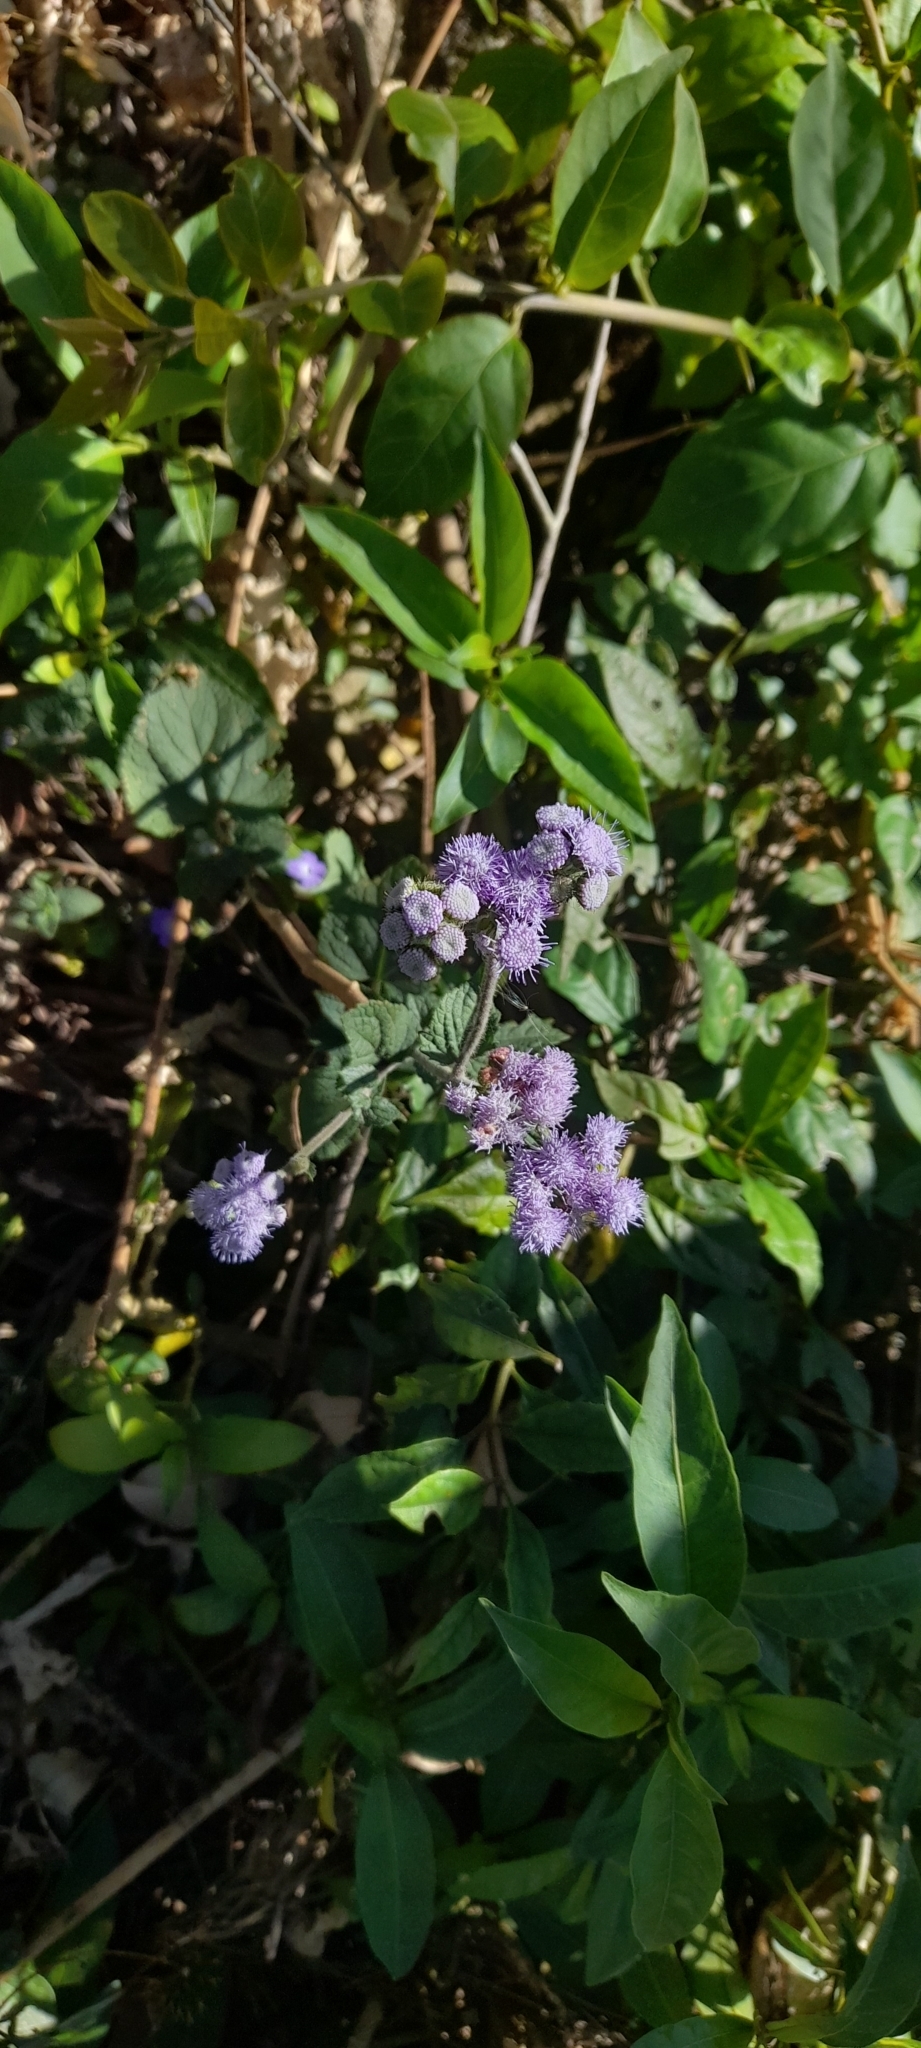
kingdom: Plantae
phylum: Tracheophyta
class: Magnoliopsida
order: Asterales
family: Asteraceae
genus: Ageratum
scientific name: Ageratum houstonianum
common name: Bluemink
